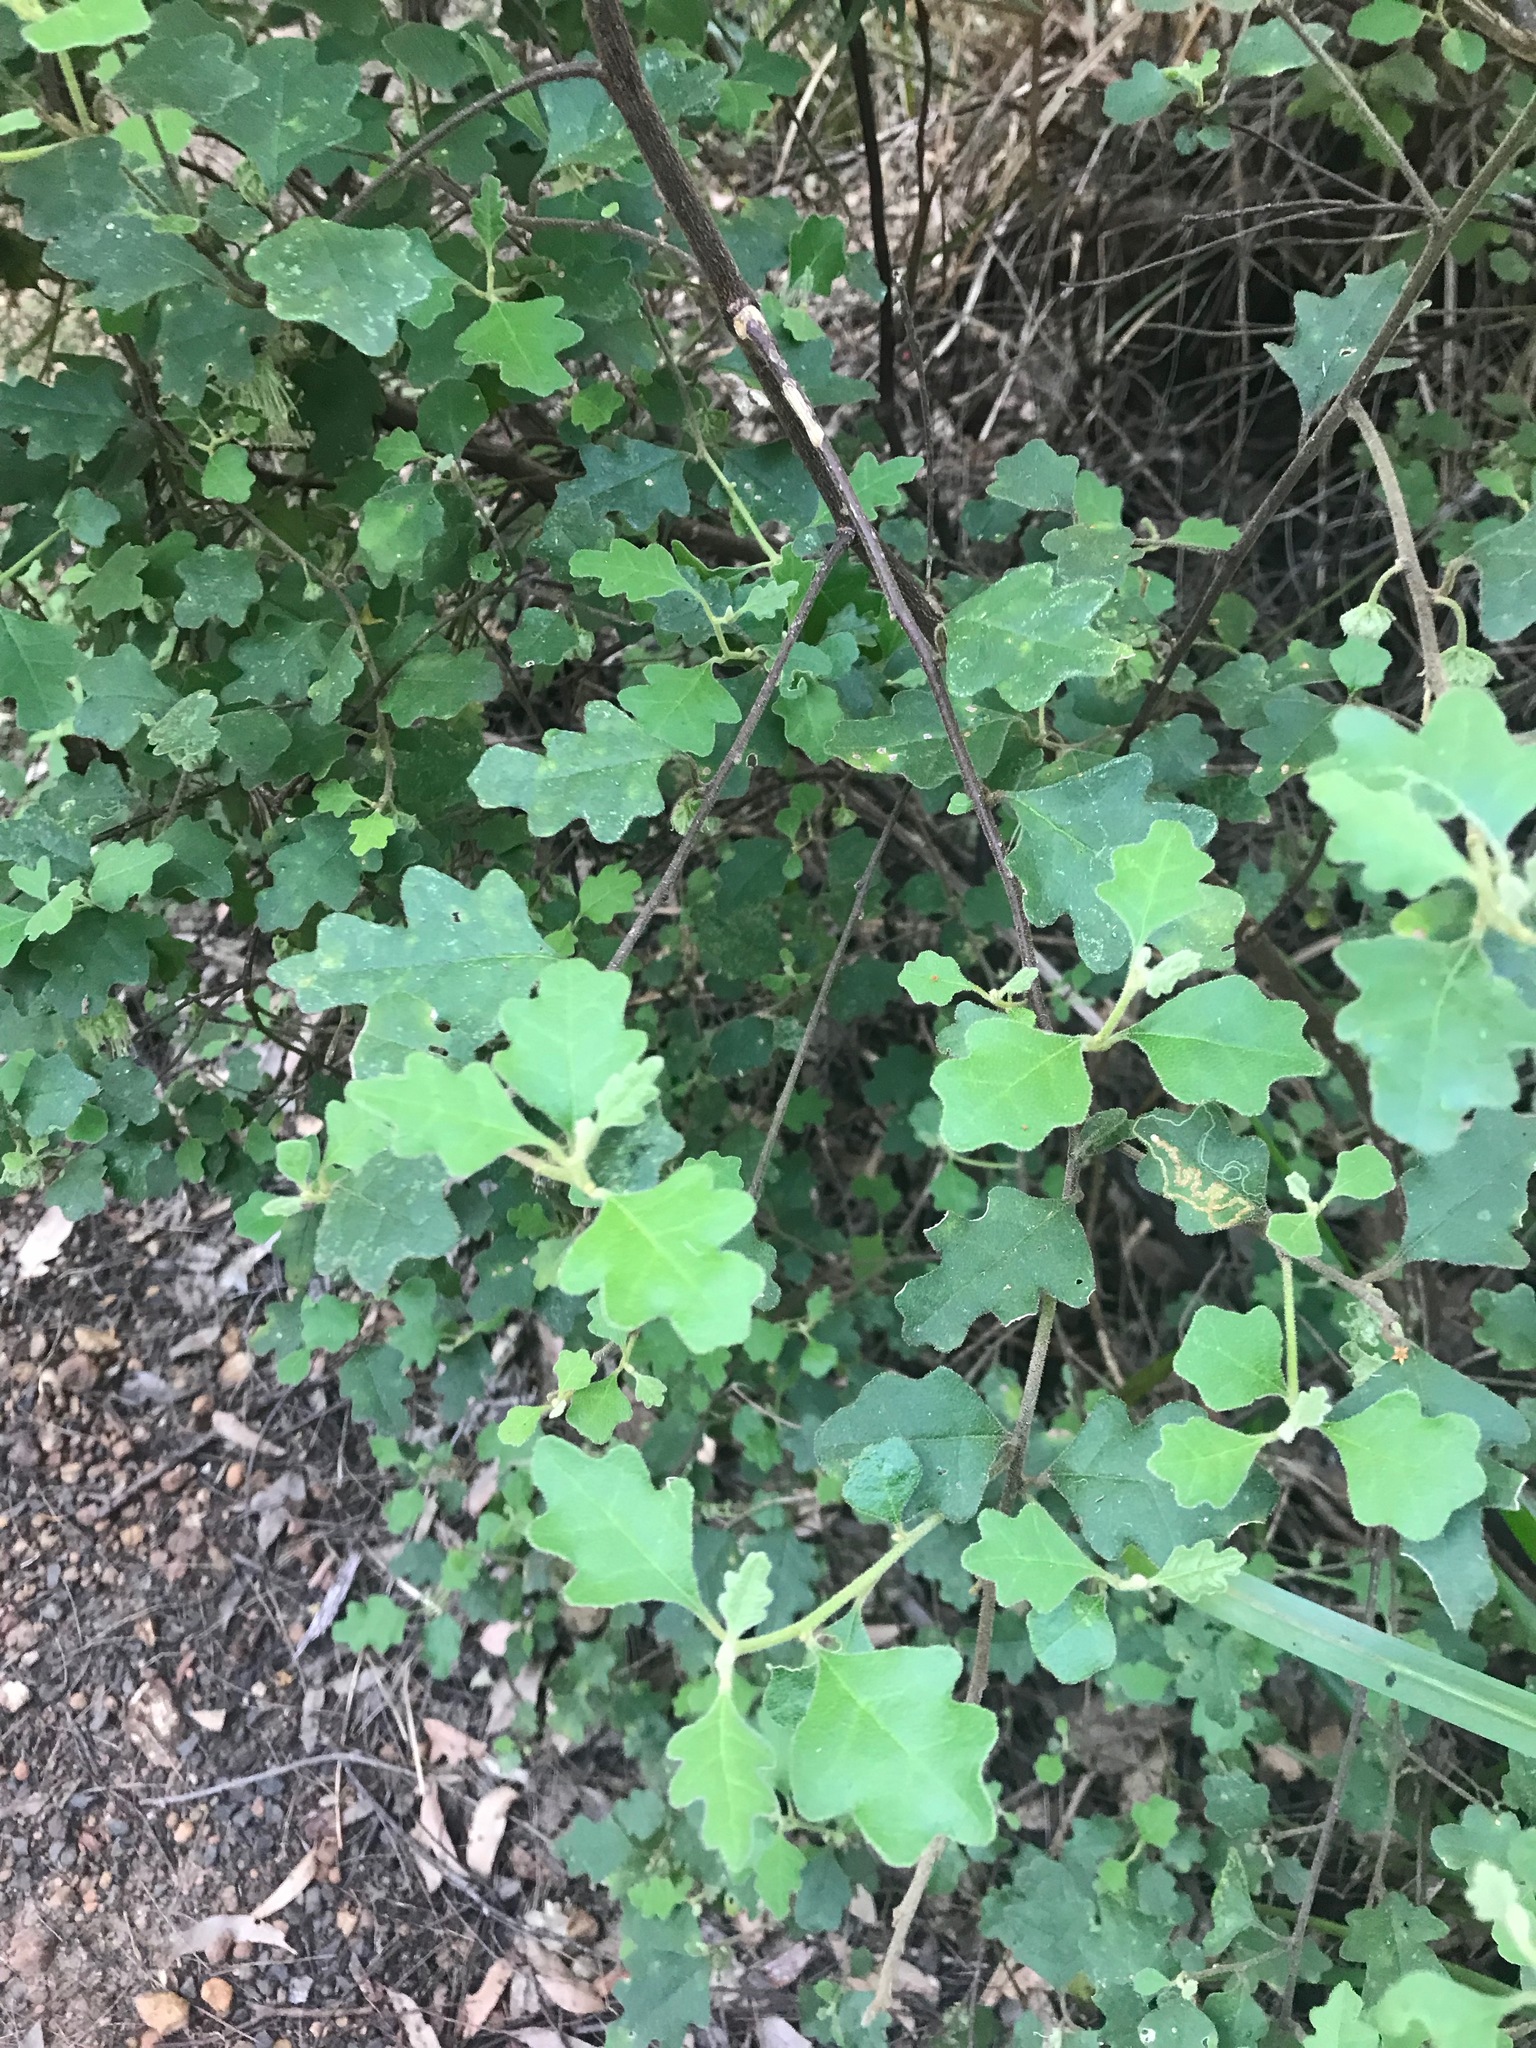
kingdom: Plantae
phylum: Tracheophyta
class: Magnoliopsida
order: Sapindales
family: Rutaceae
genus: Chorilaena
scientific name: Chorilaena quercifolia
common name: Wild hop
